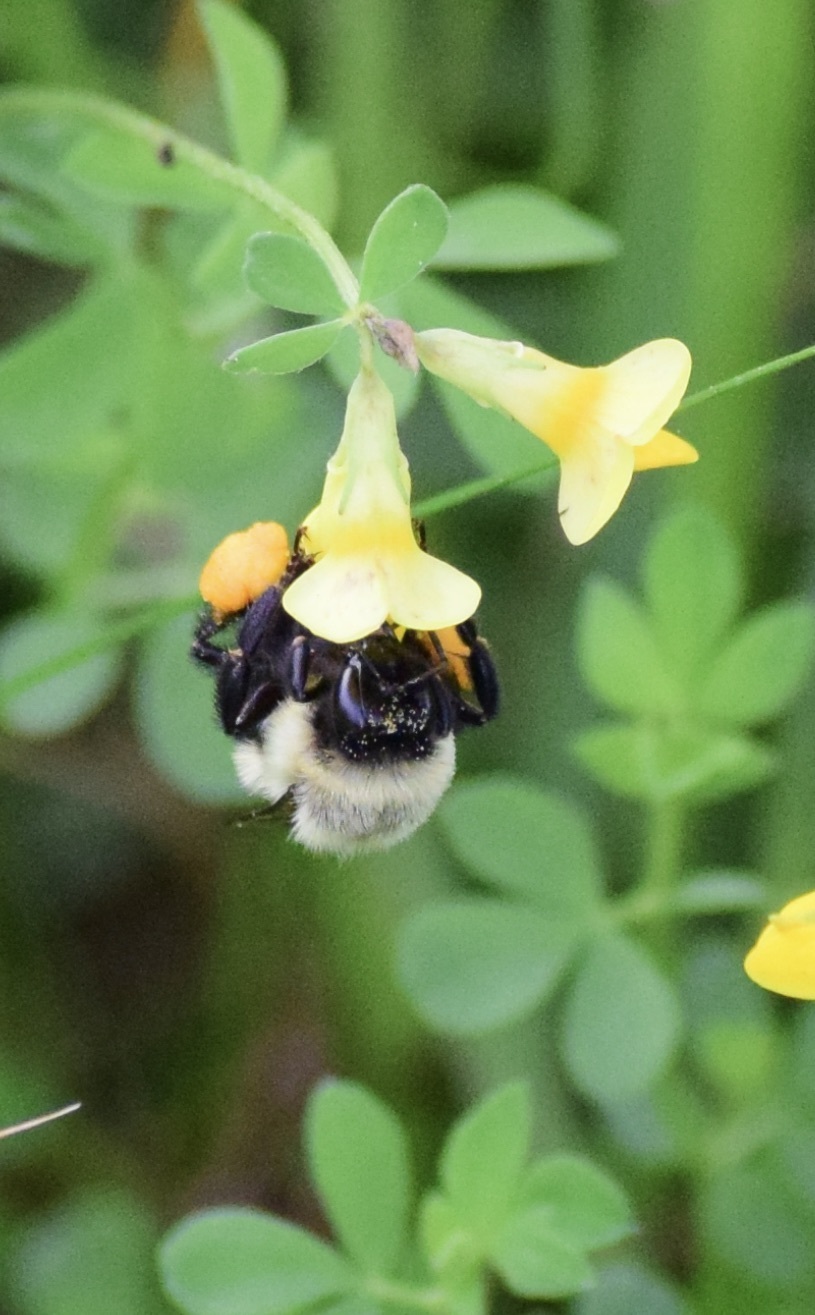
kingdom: Animalia
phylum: Arthropoda
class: Insecta
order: Hymenoptera
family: Apidae
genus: Bombus
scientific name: Bombus impatiens
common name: Common eastern bumble bee
